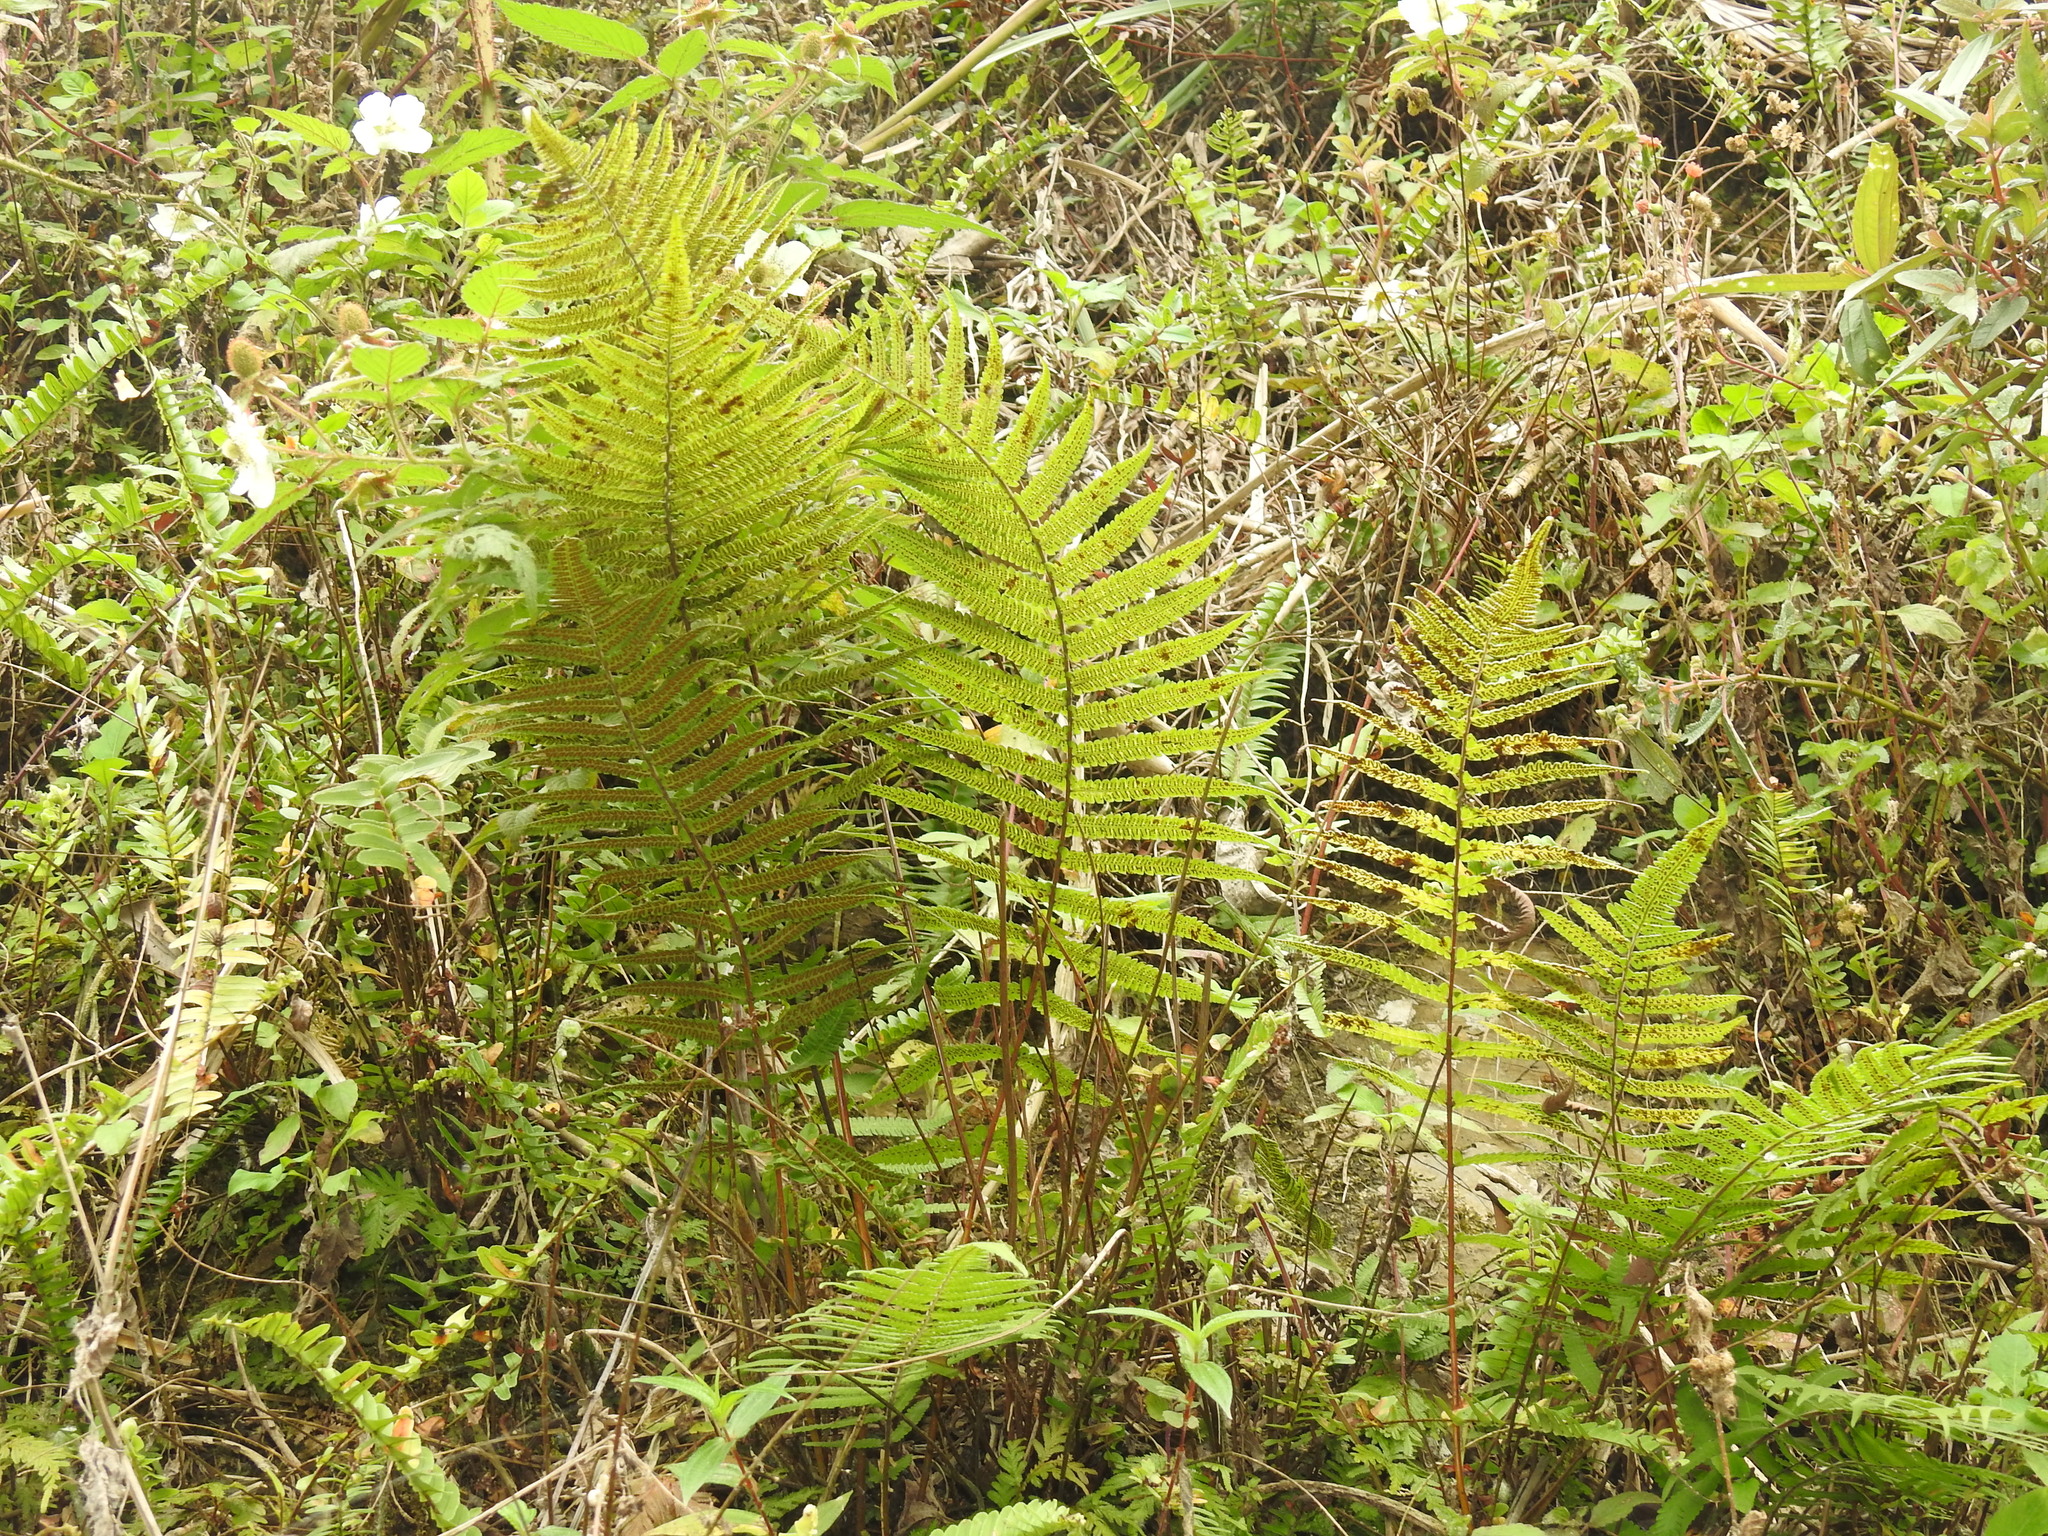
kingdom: Plantae
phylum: Tracheophyta
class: Polypodiopsida
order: Polypodiales
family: Thelypteridaceae
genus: Christella
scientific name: Christella parasitica
